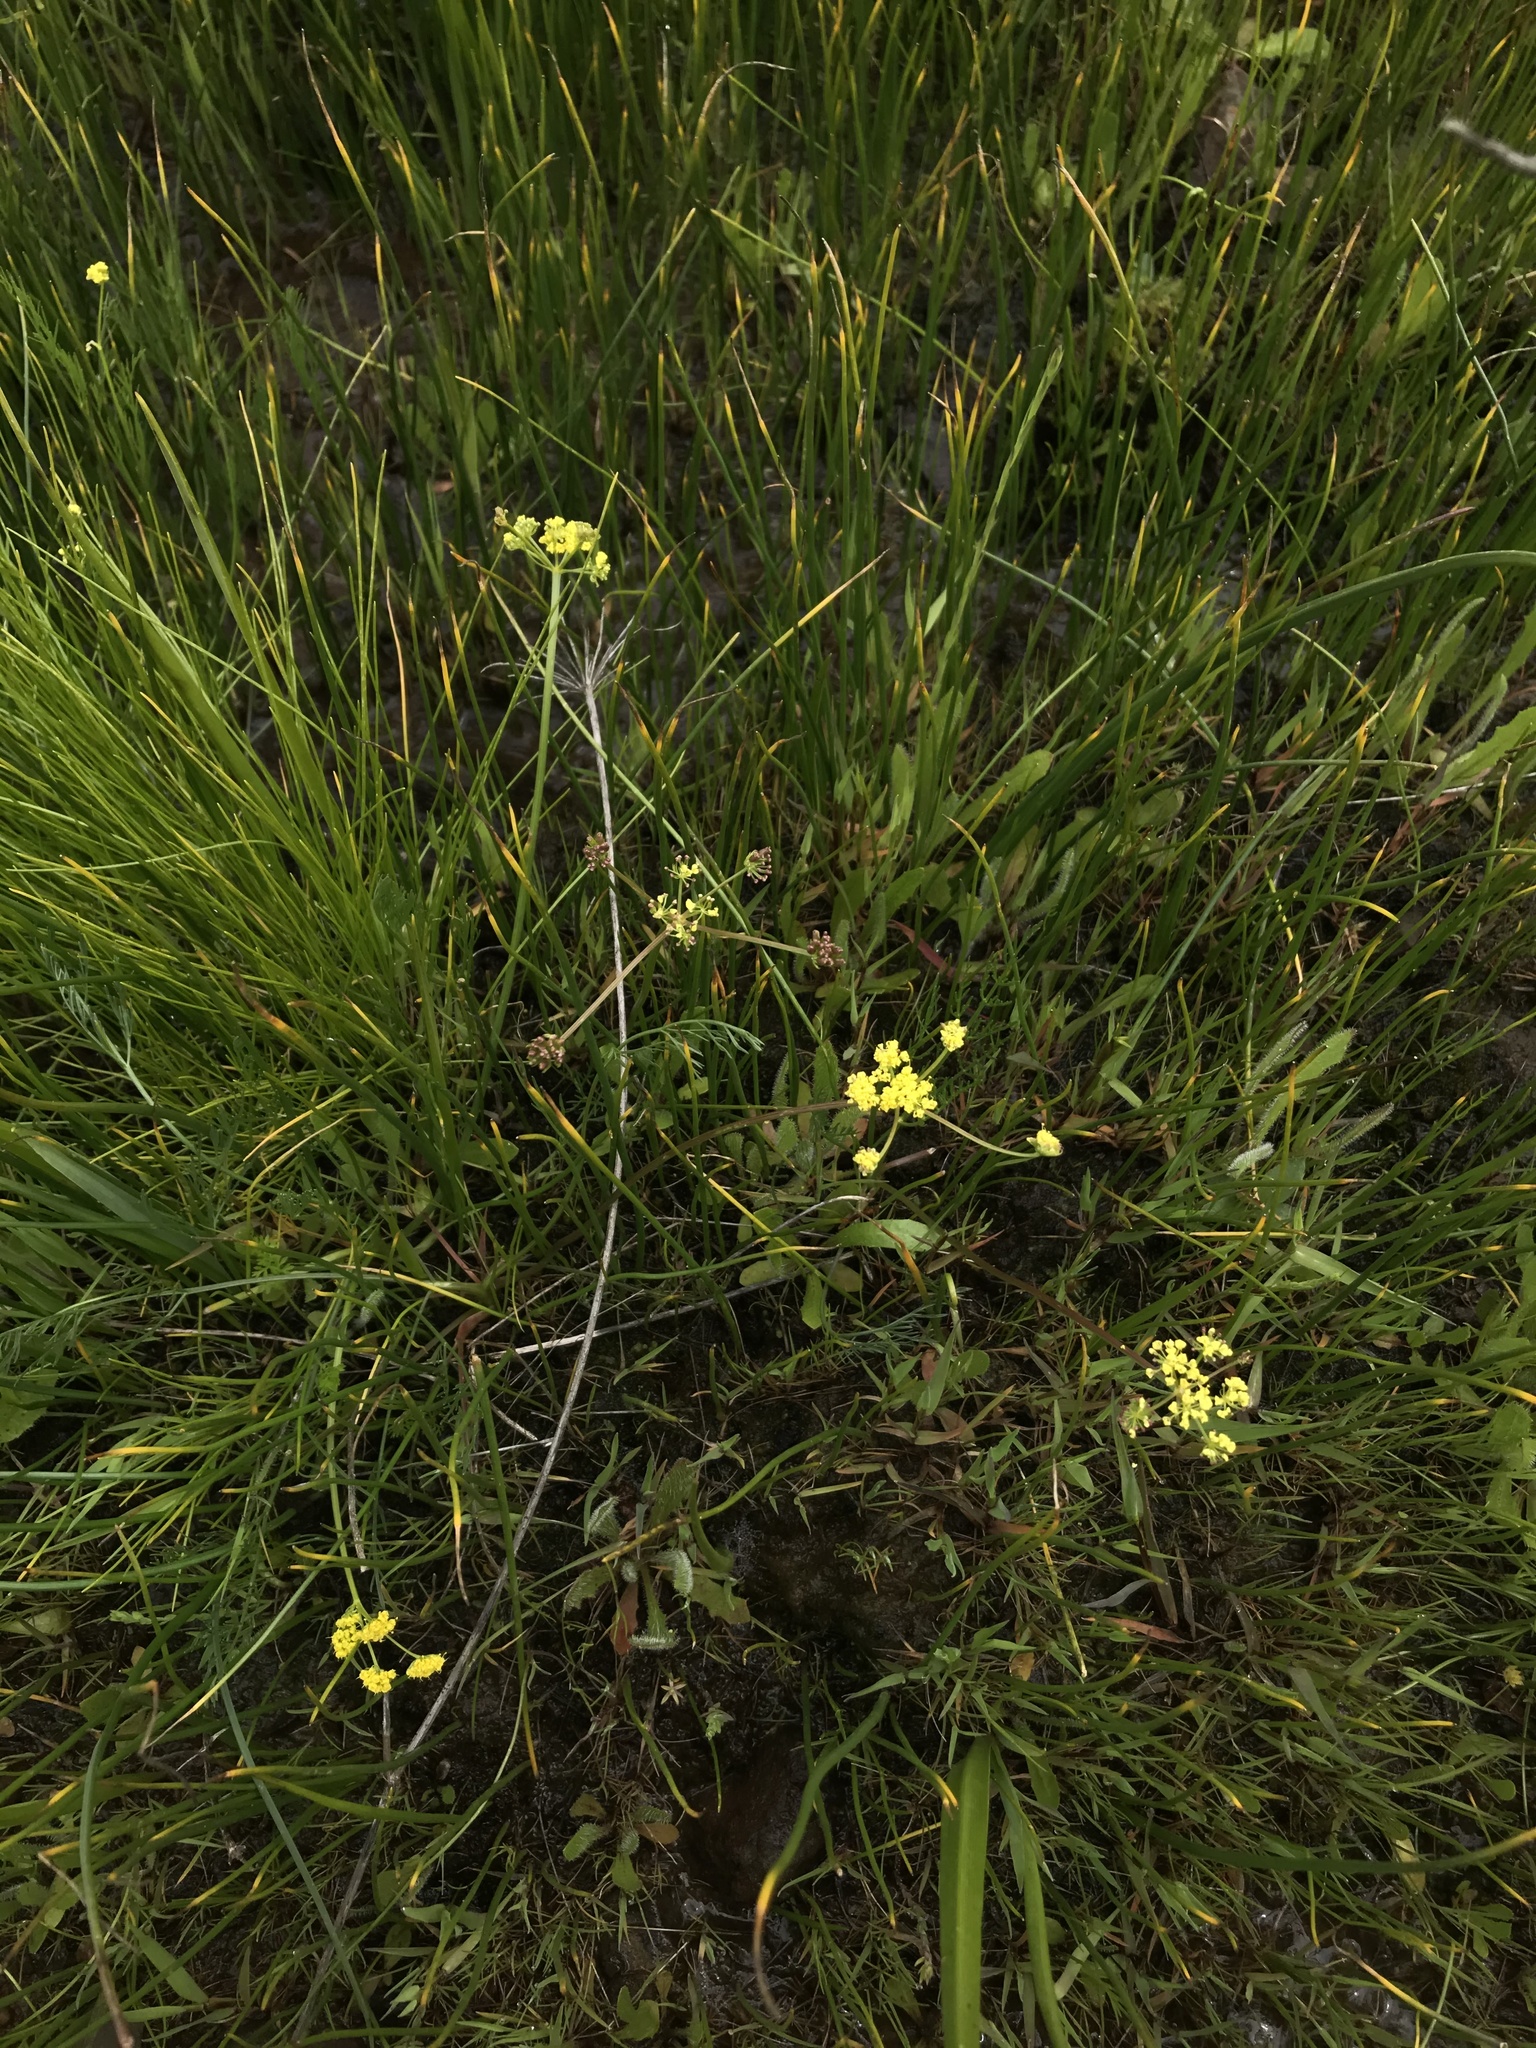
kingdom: Plantae
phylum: Tracheophyta
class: Magnoliopsida
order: Apiales
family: Apiaceae
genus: Lomatium
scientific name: Lomatium bradshawii
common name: Bradshaw's desert-parsley
